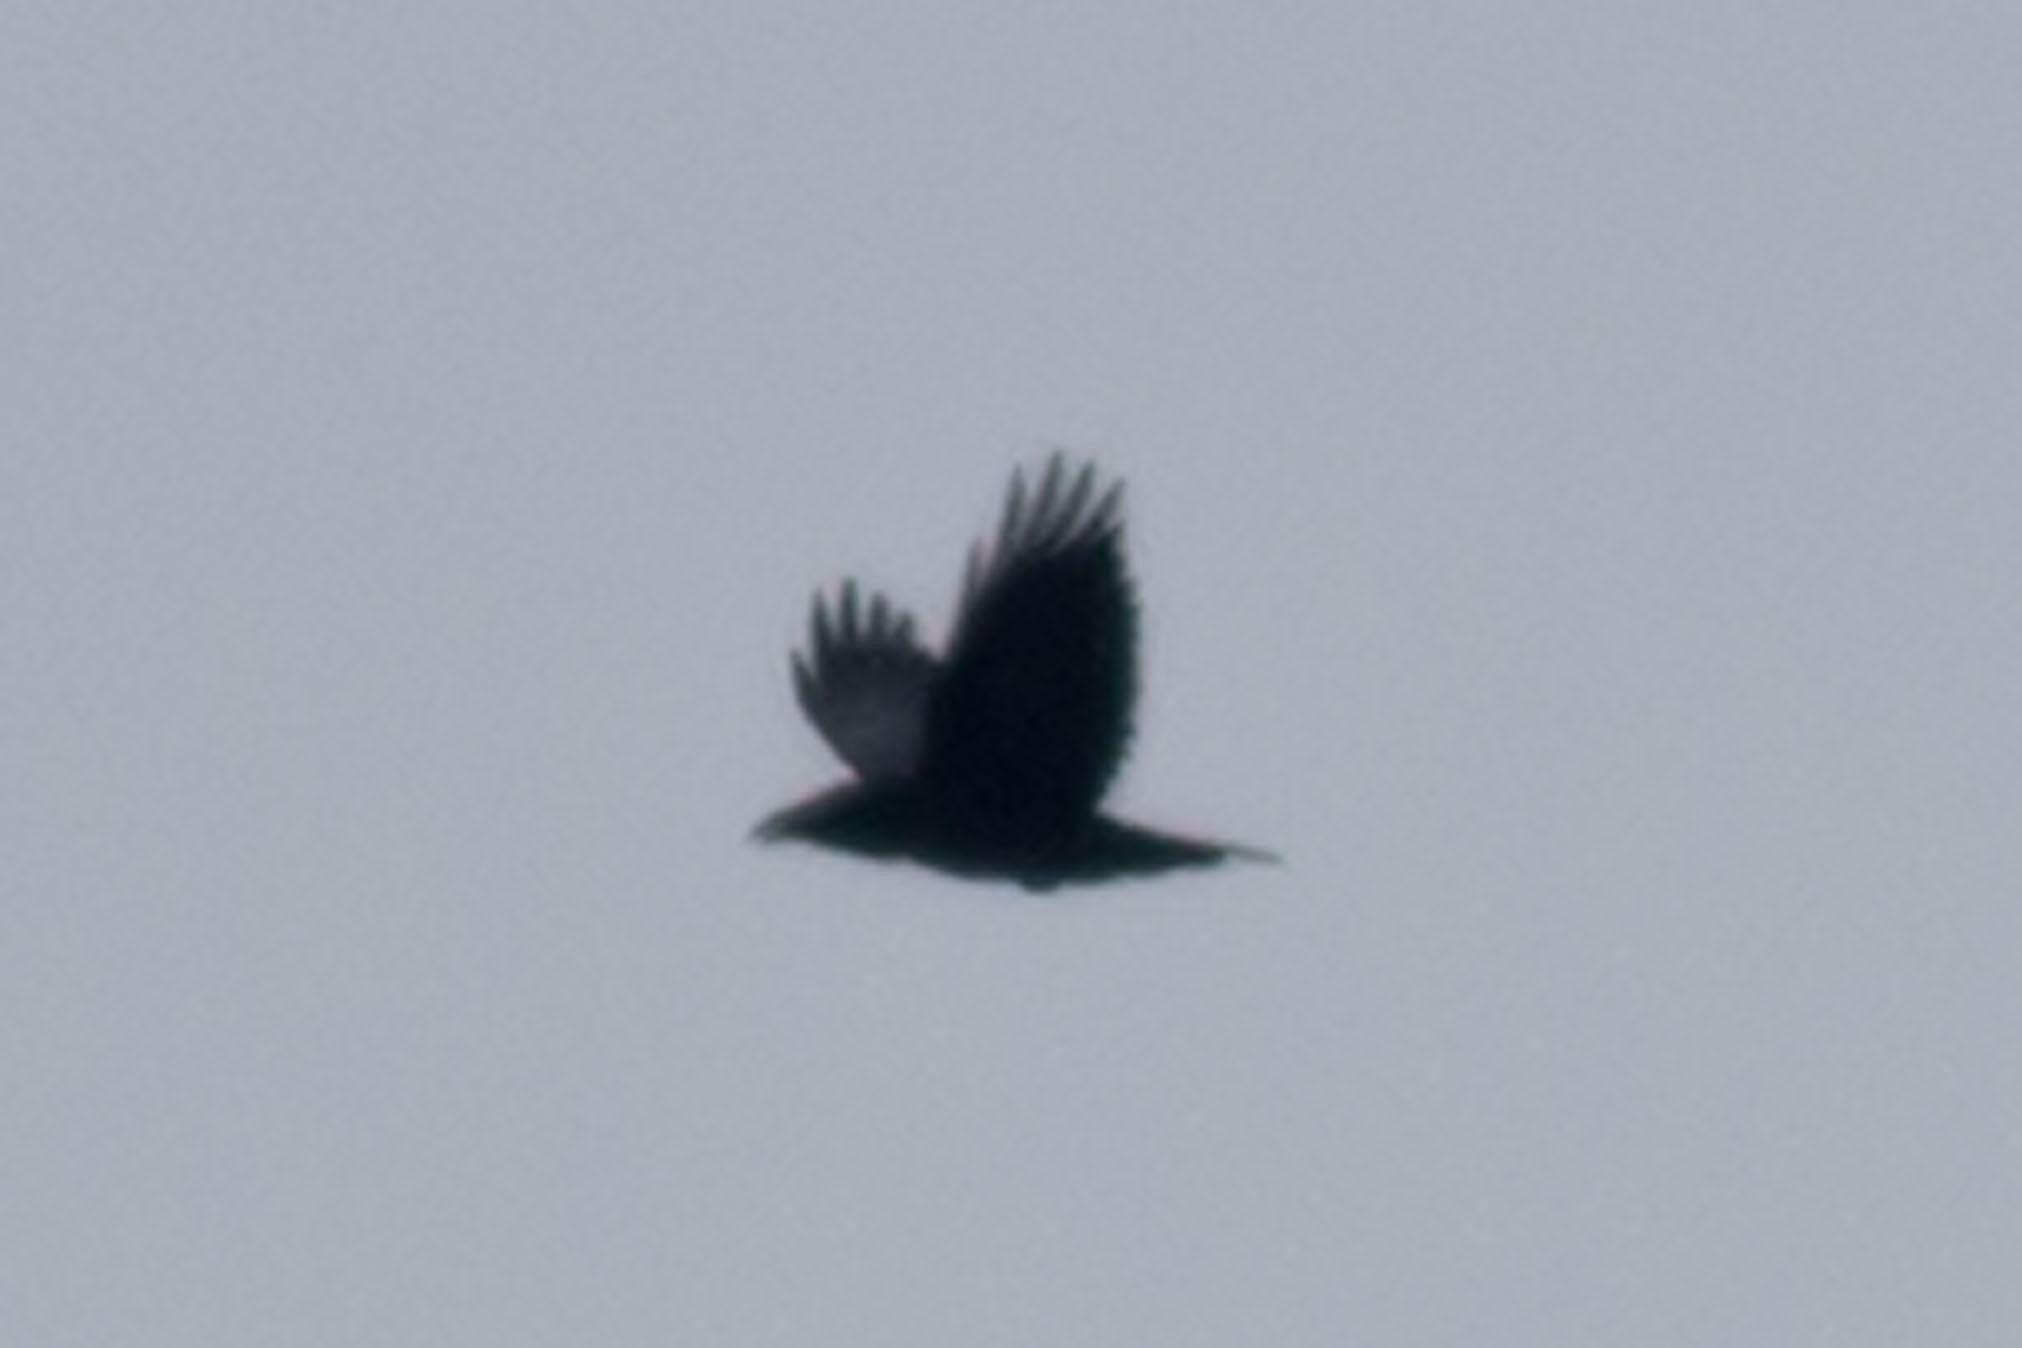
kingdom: Animalia
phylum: Chordata
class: Aves
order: Passeriformes
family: Corvidae
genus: Corvus
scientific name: Corvus corax
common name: Common raven
